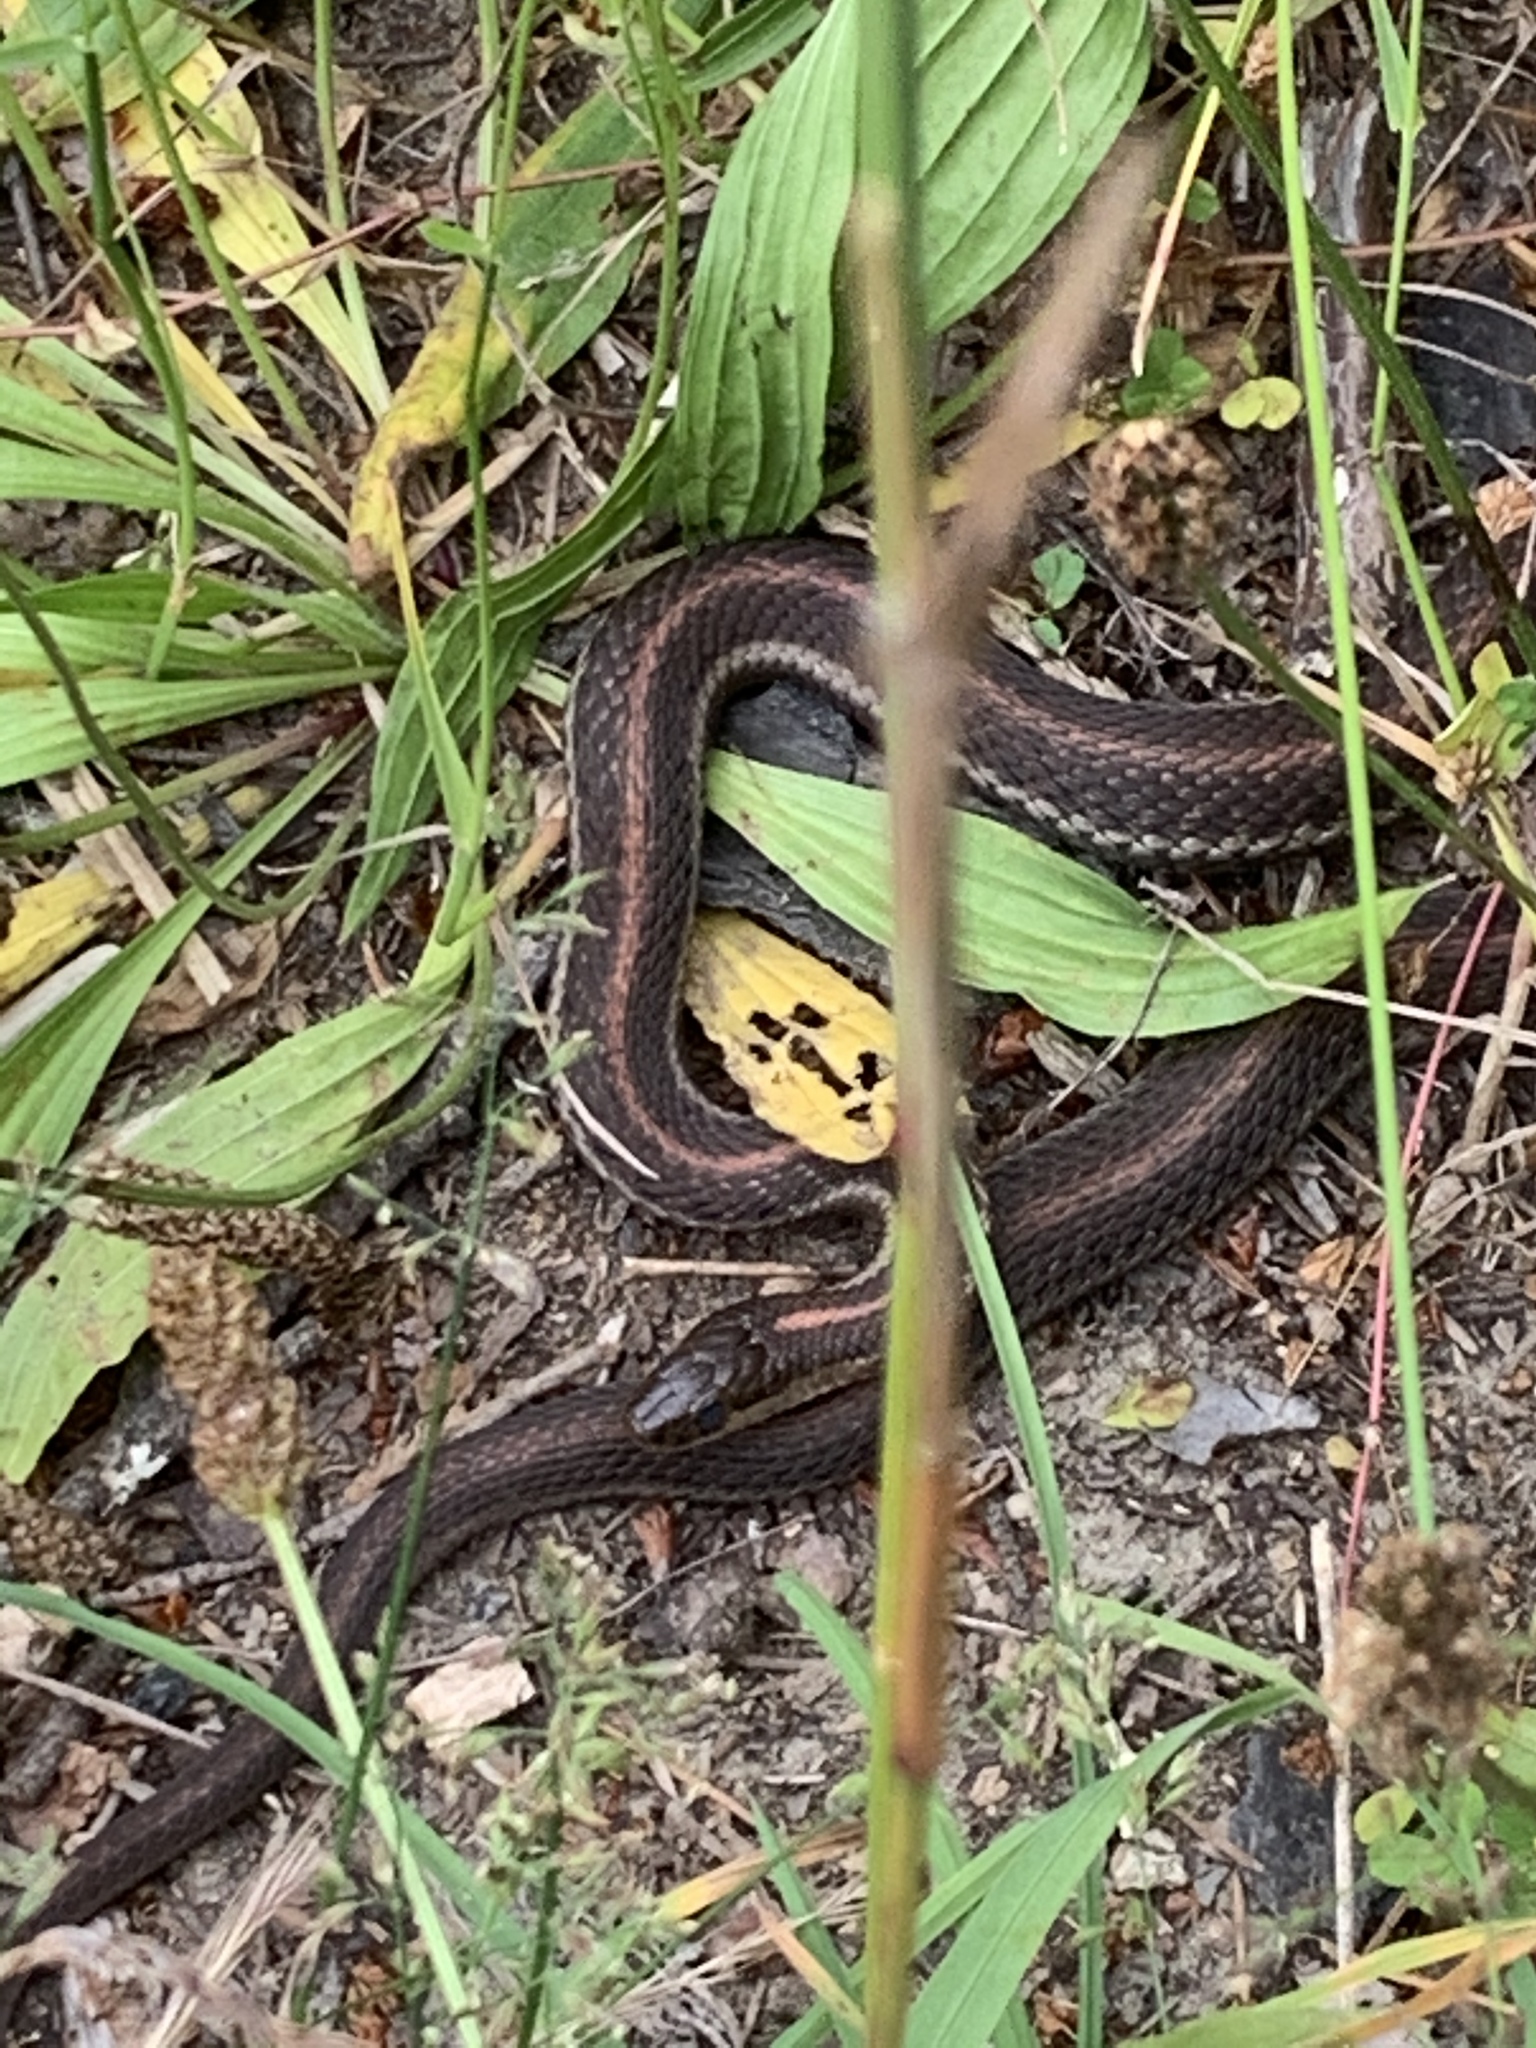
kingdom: Animalia
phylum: Chordata
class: Squamata
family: Colubridae
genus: Thamnophis
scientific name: Thamnophis ordinoides
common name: Northwestern garter snake
